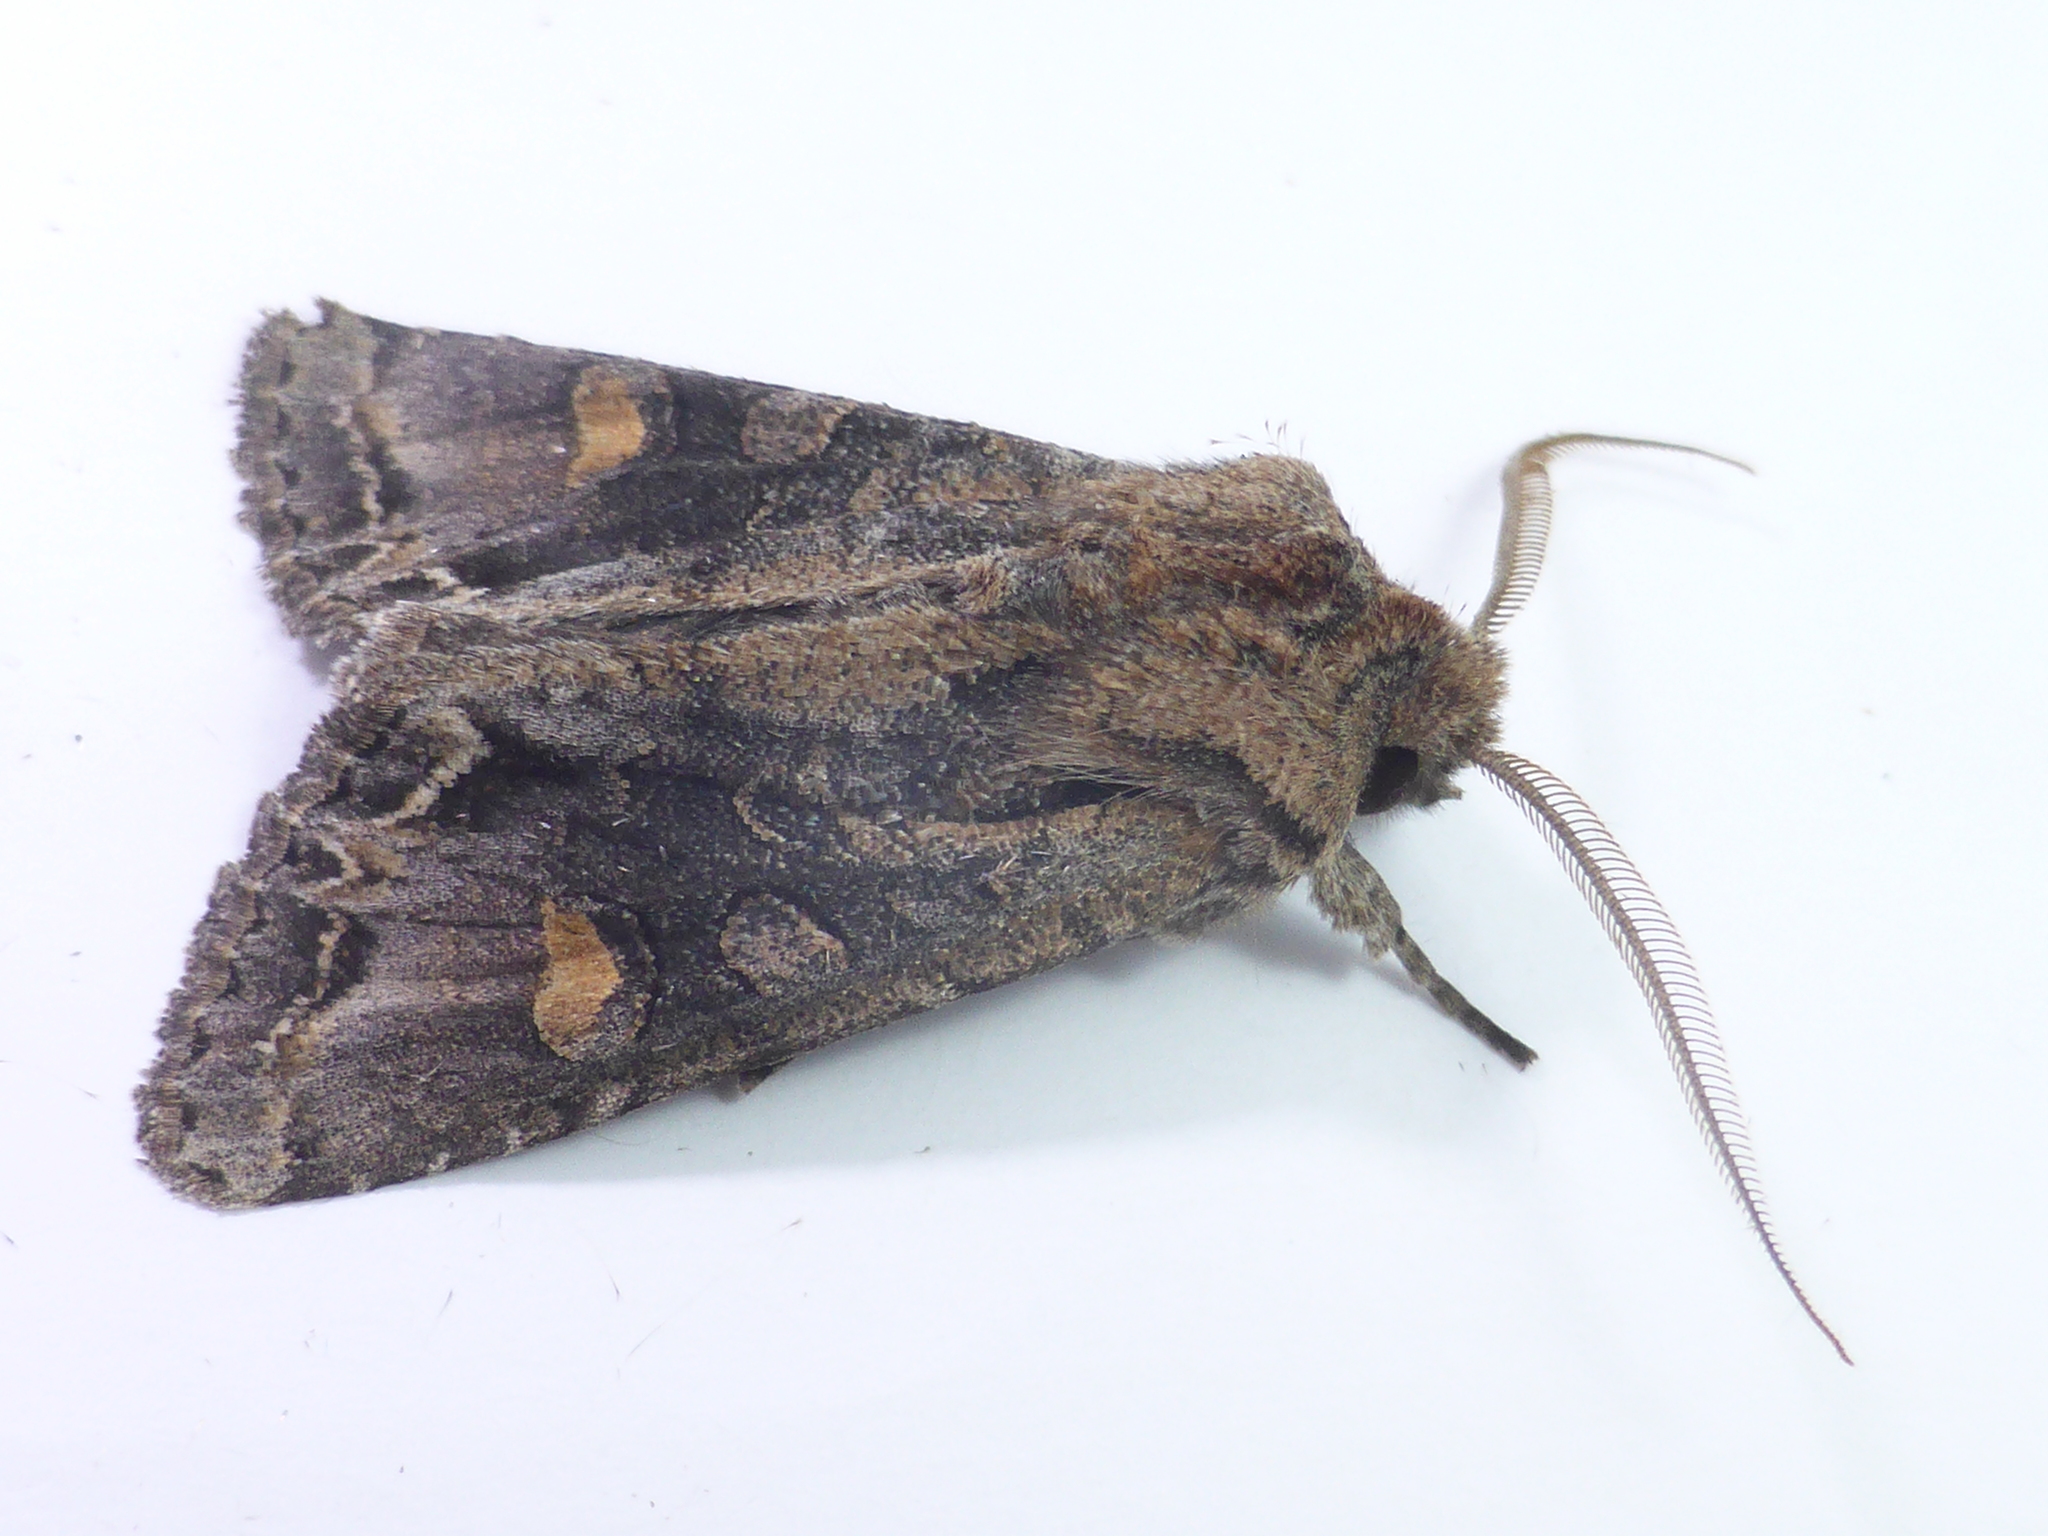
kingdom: Animalia
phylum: Arthropoda
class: Insecta
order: Lepidoptera
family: Noctuidae
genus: Ichneutica
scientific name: Ichneutica
